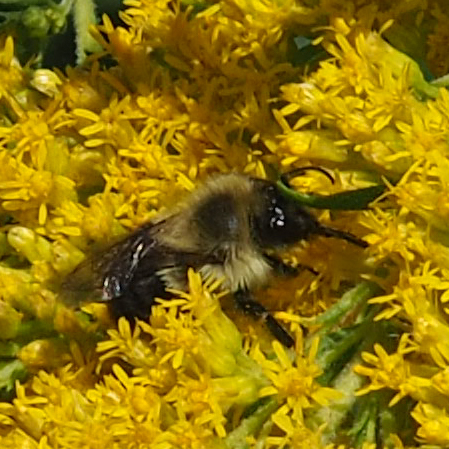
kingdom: Animalia
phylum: Arthropoda
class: Insecta
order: Hymenoptera
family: Apidae
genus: Bombus
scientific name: Bombus impatiens
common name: Common eastern bumble bee
